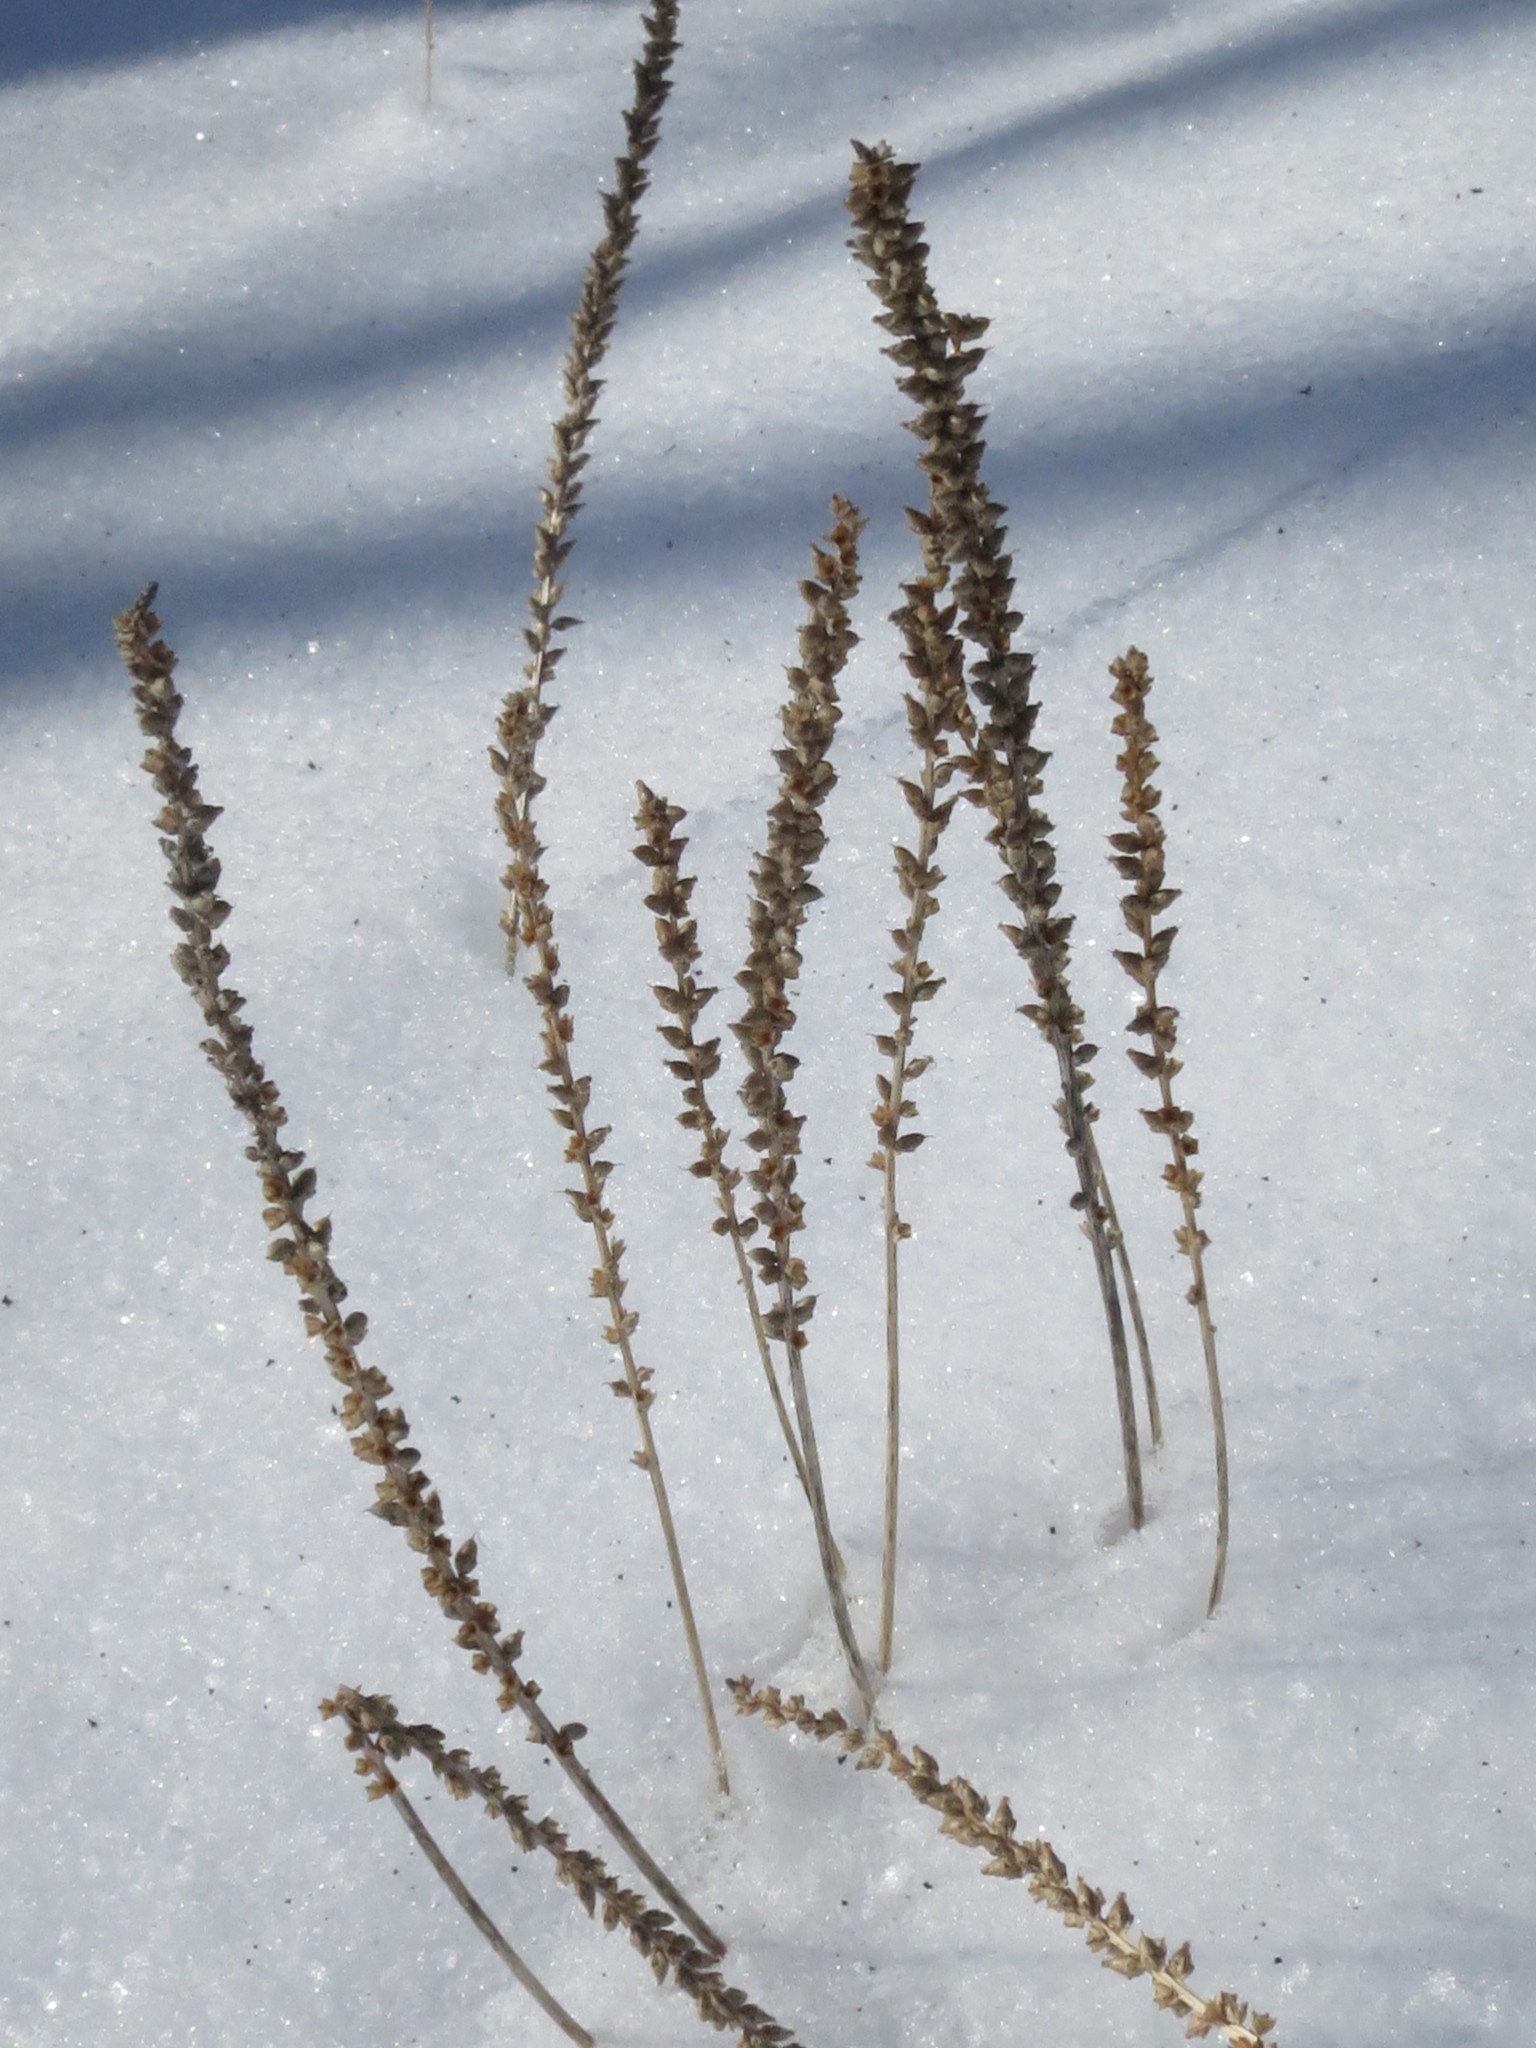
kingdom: Plantae
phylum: Tracheophyta
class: Magnoliopsida
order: Lamiales
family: Plantaginaceae
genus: Plantago
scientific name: Plantago major
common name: Common plantain
